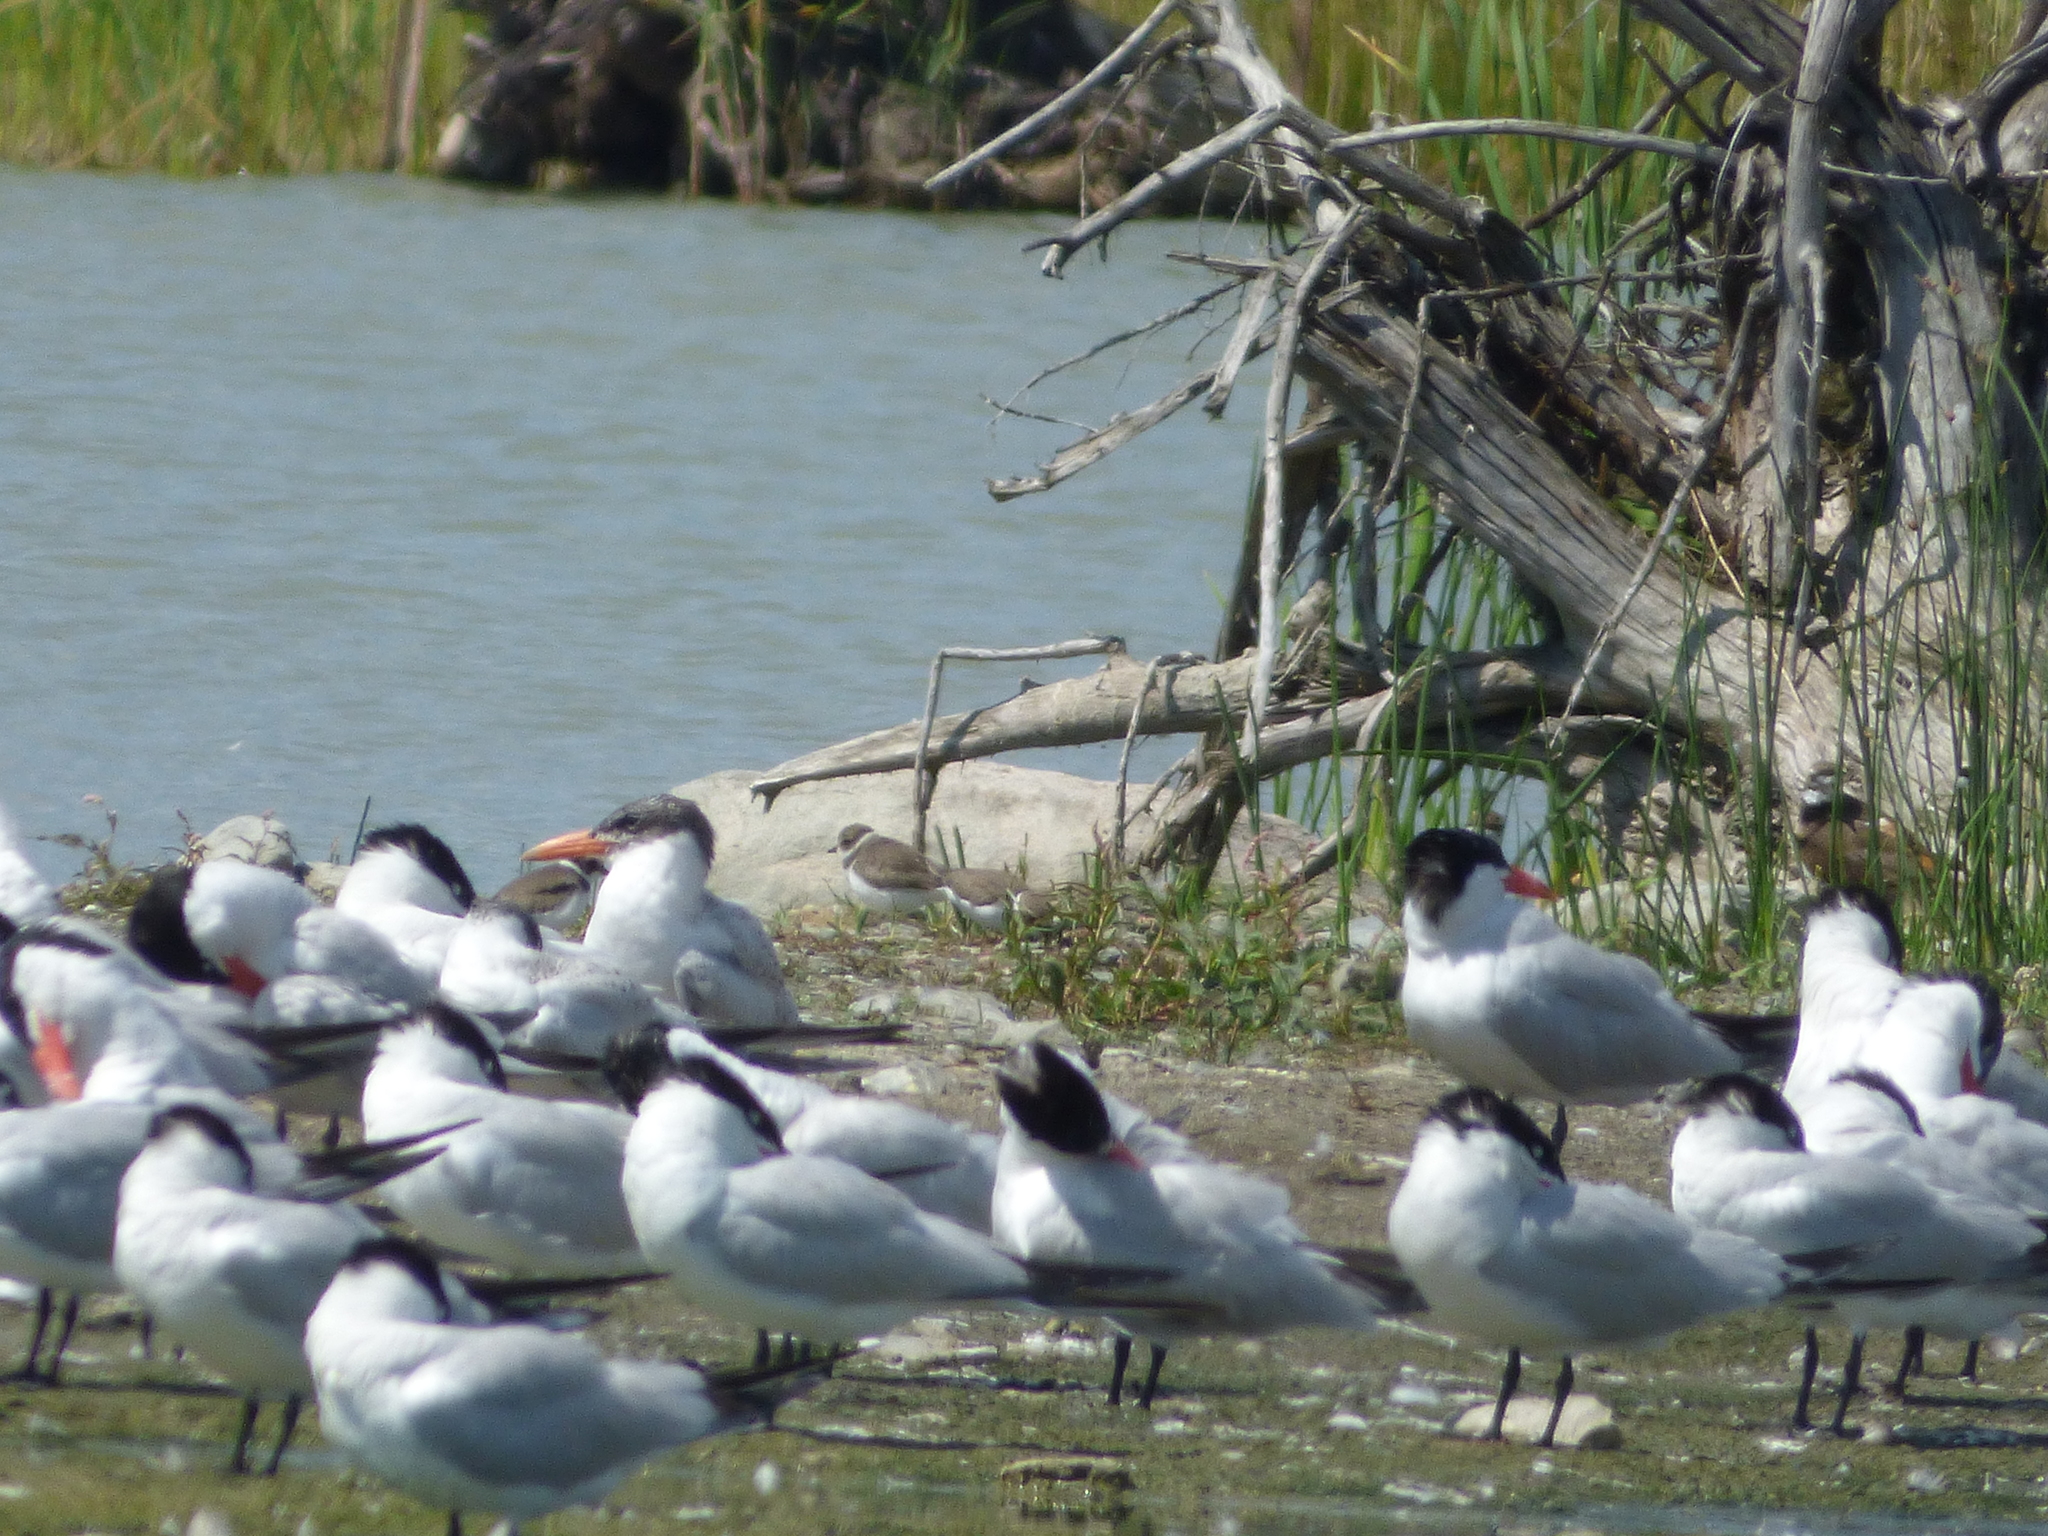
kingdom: Animalia
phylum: Chordata
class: Aves
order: Charadriiformes
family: Laridae
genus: Hydroprogne
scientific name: Hydroprogne caspia
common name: Caspian tern
